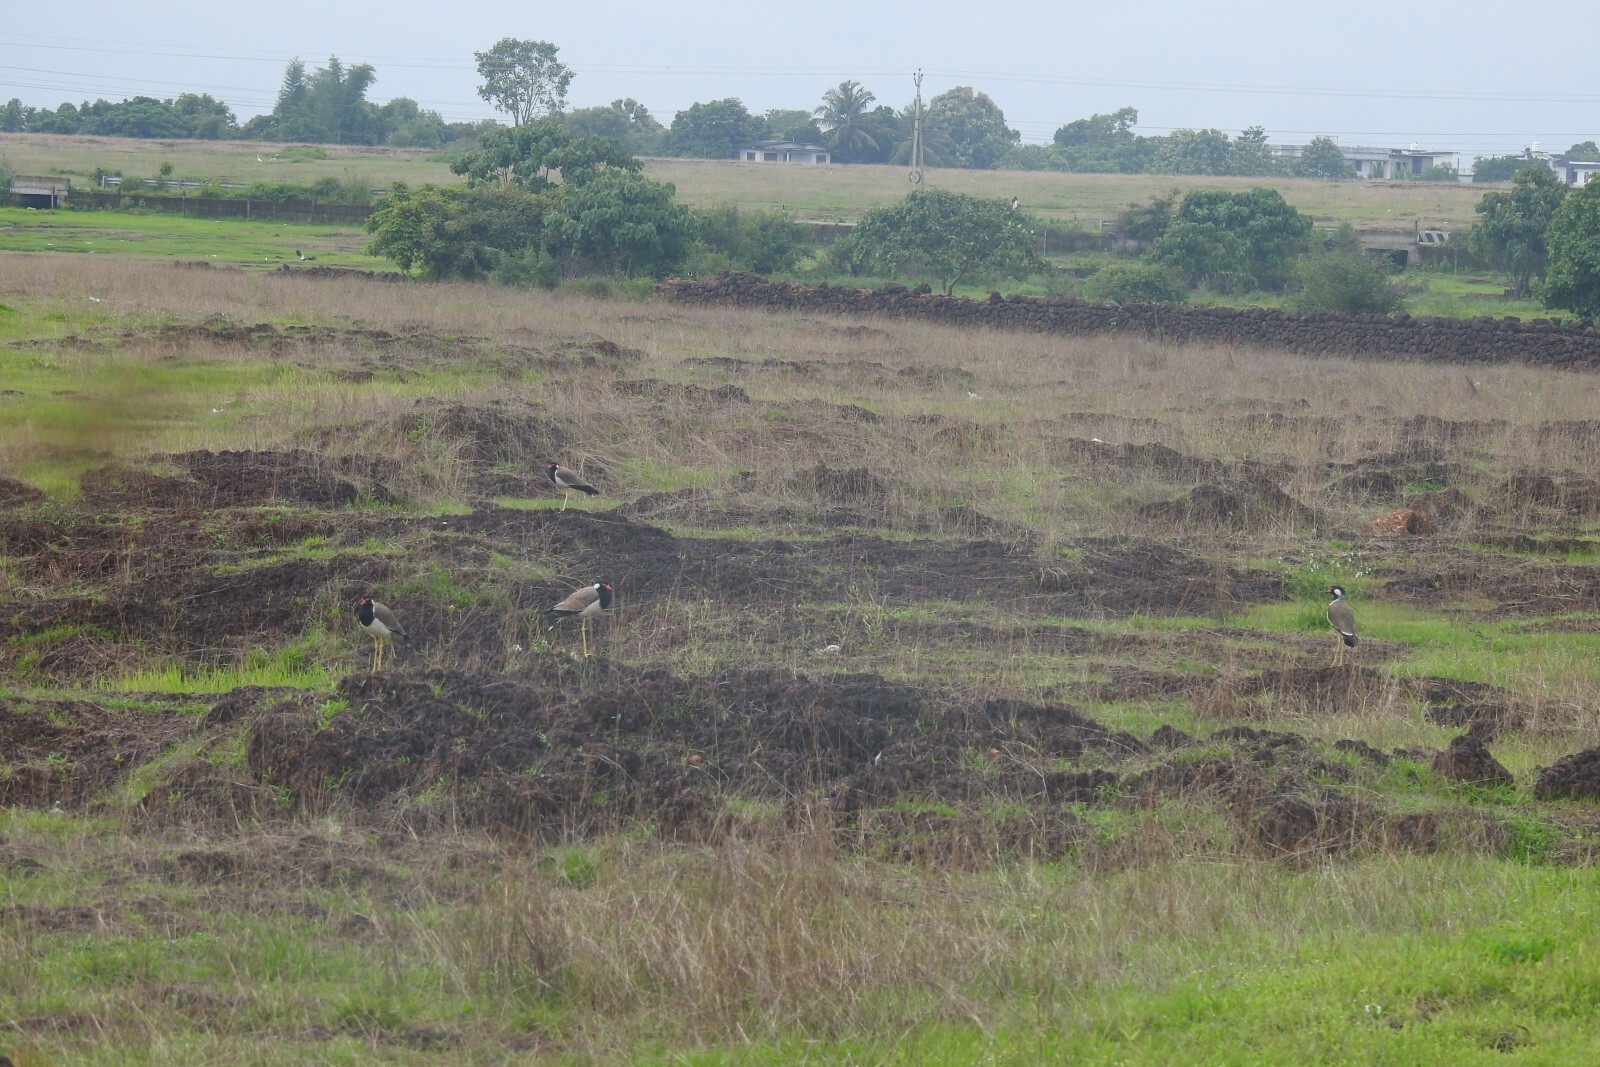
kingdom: Animalia
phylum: Chordata
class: Aves
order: Charadriiformes
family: Charadriidae
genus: Vanellus
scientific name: Vanellus indicus
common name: Red-wattled lapwing
